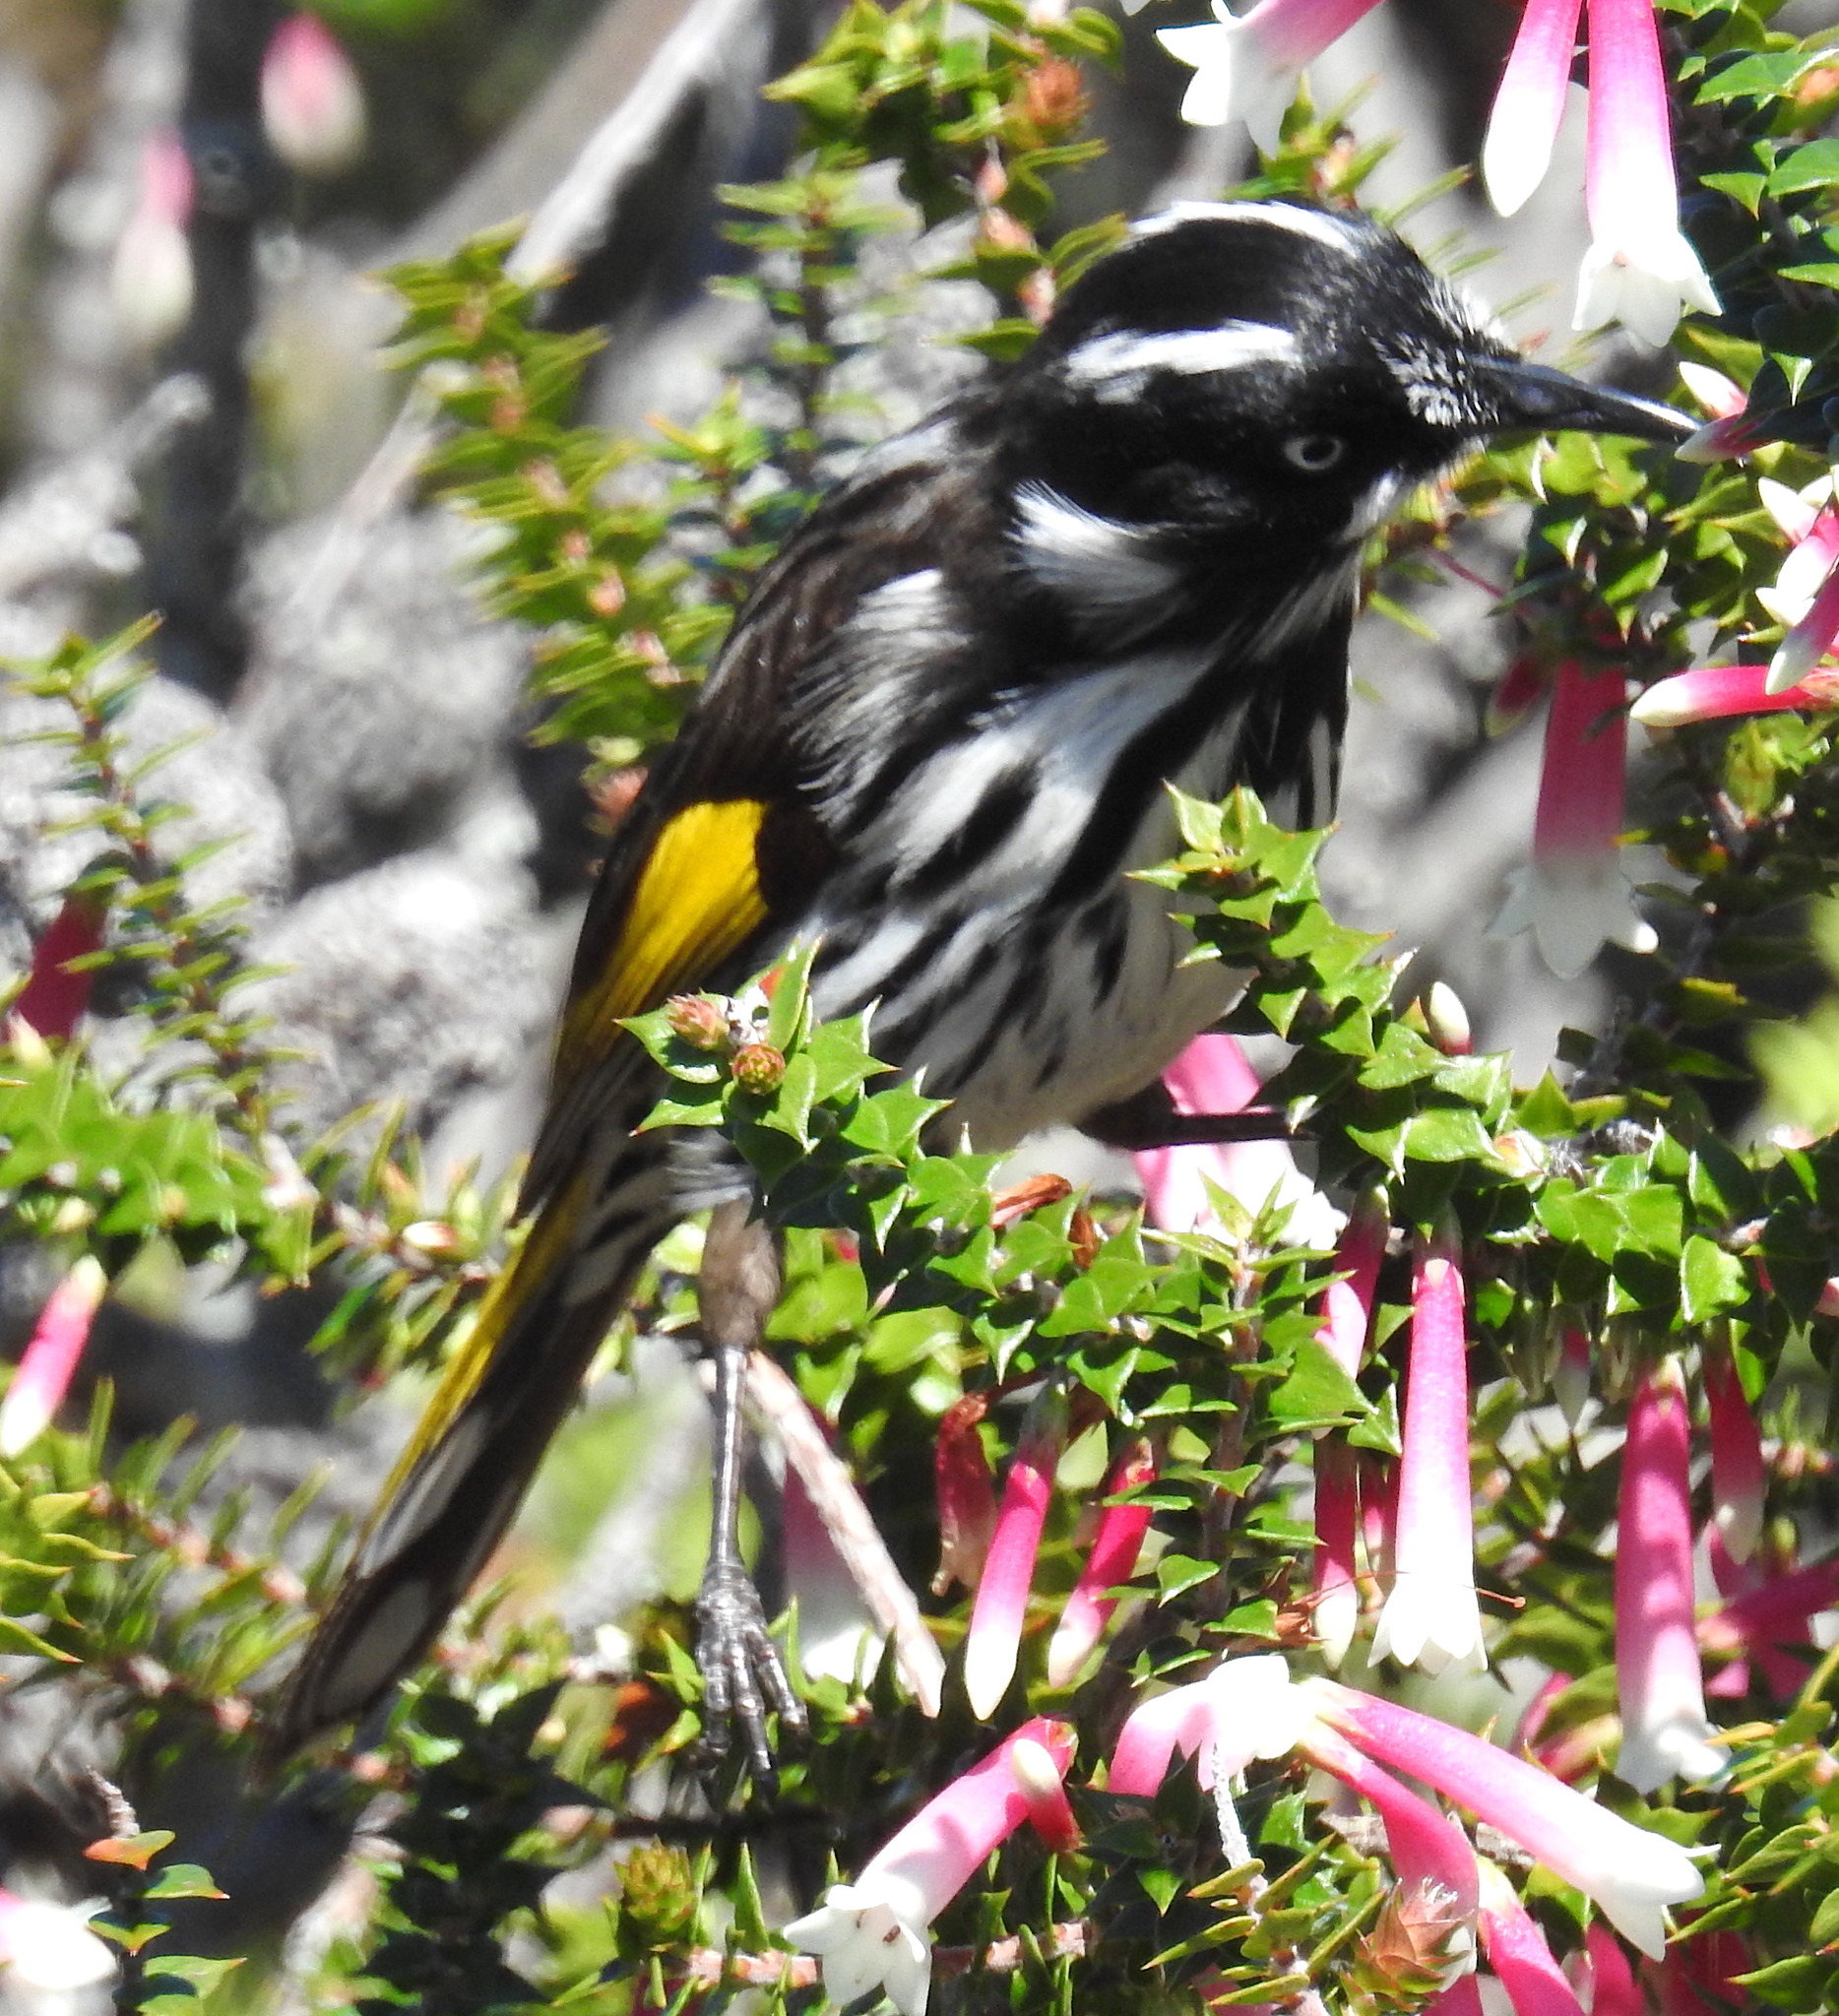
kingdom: Animalia
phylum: Chordata
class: Aves
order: Passeriformes
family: Meliphagidae
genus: Phylidonyris
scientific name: Phylidonyris novaehollandiae
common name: New holland honeyeater
